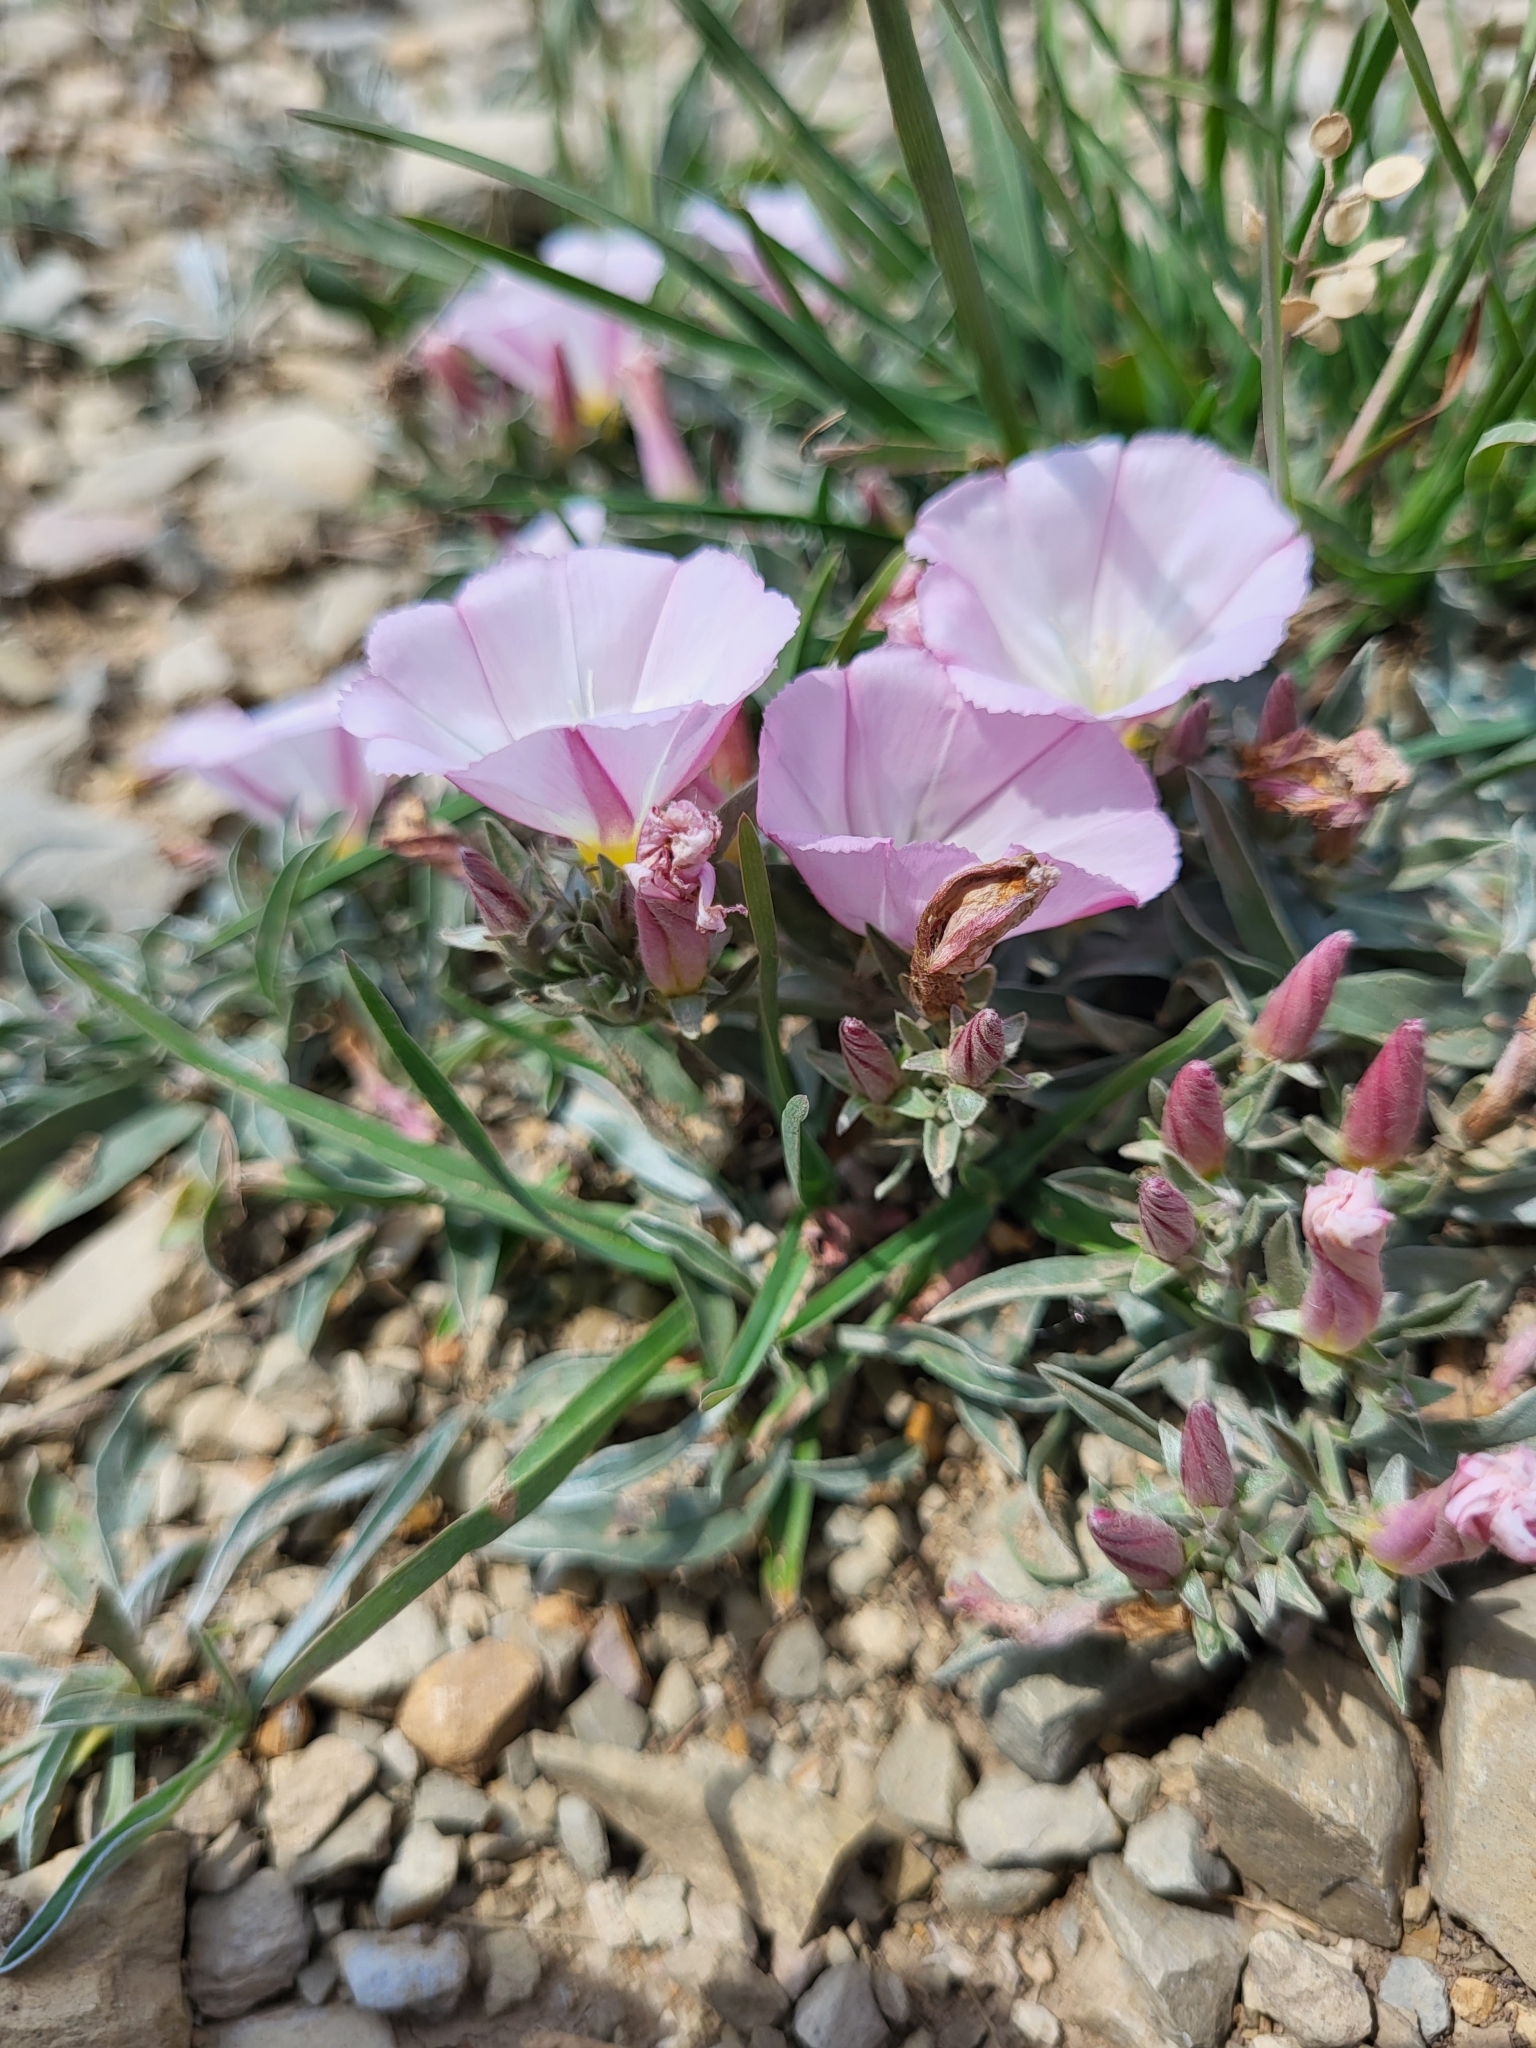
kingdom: Plantae
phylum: Tracheophyta
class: Magnoliopsida
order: Solanales
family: Convolvulaceae
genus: Convolvulus
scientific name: Convolvulus lineatus
